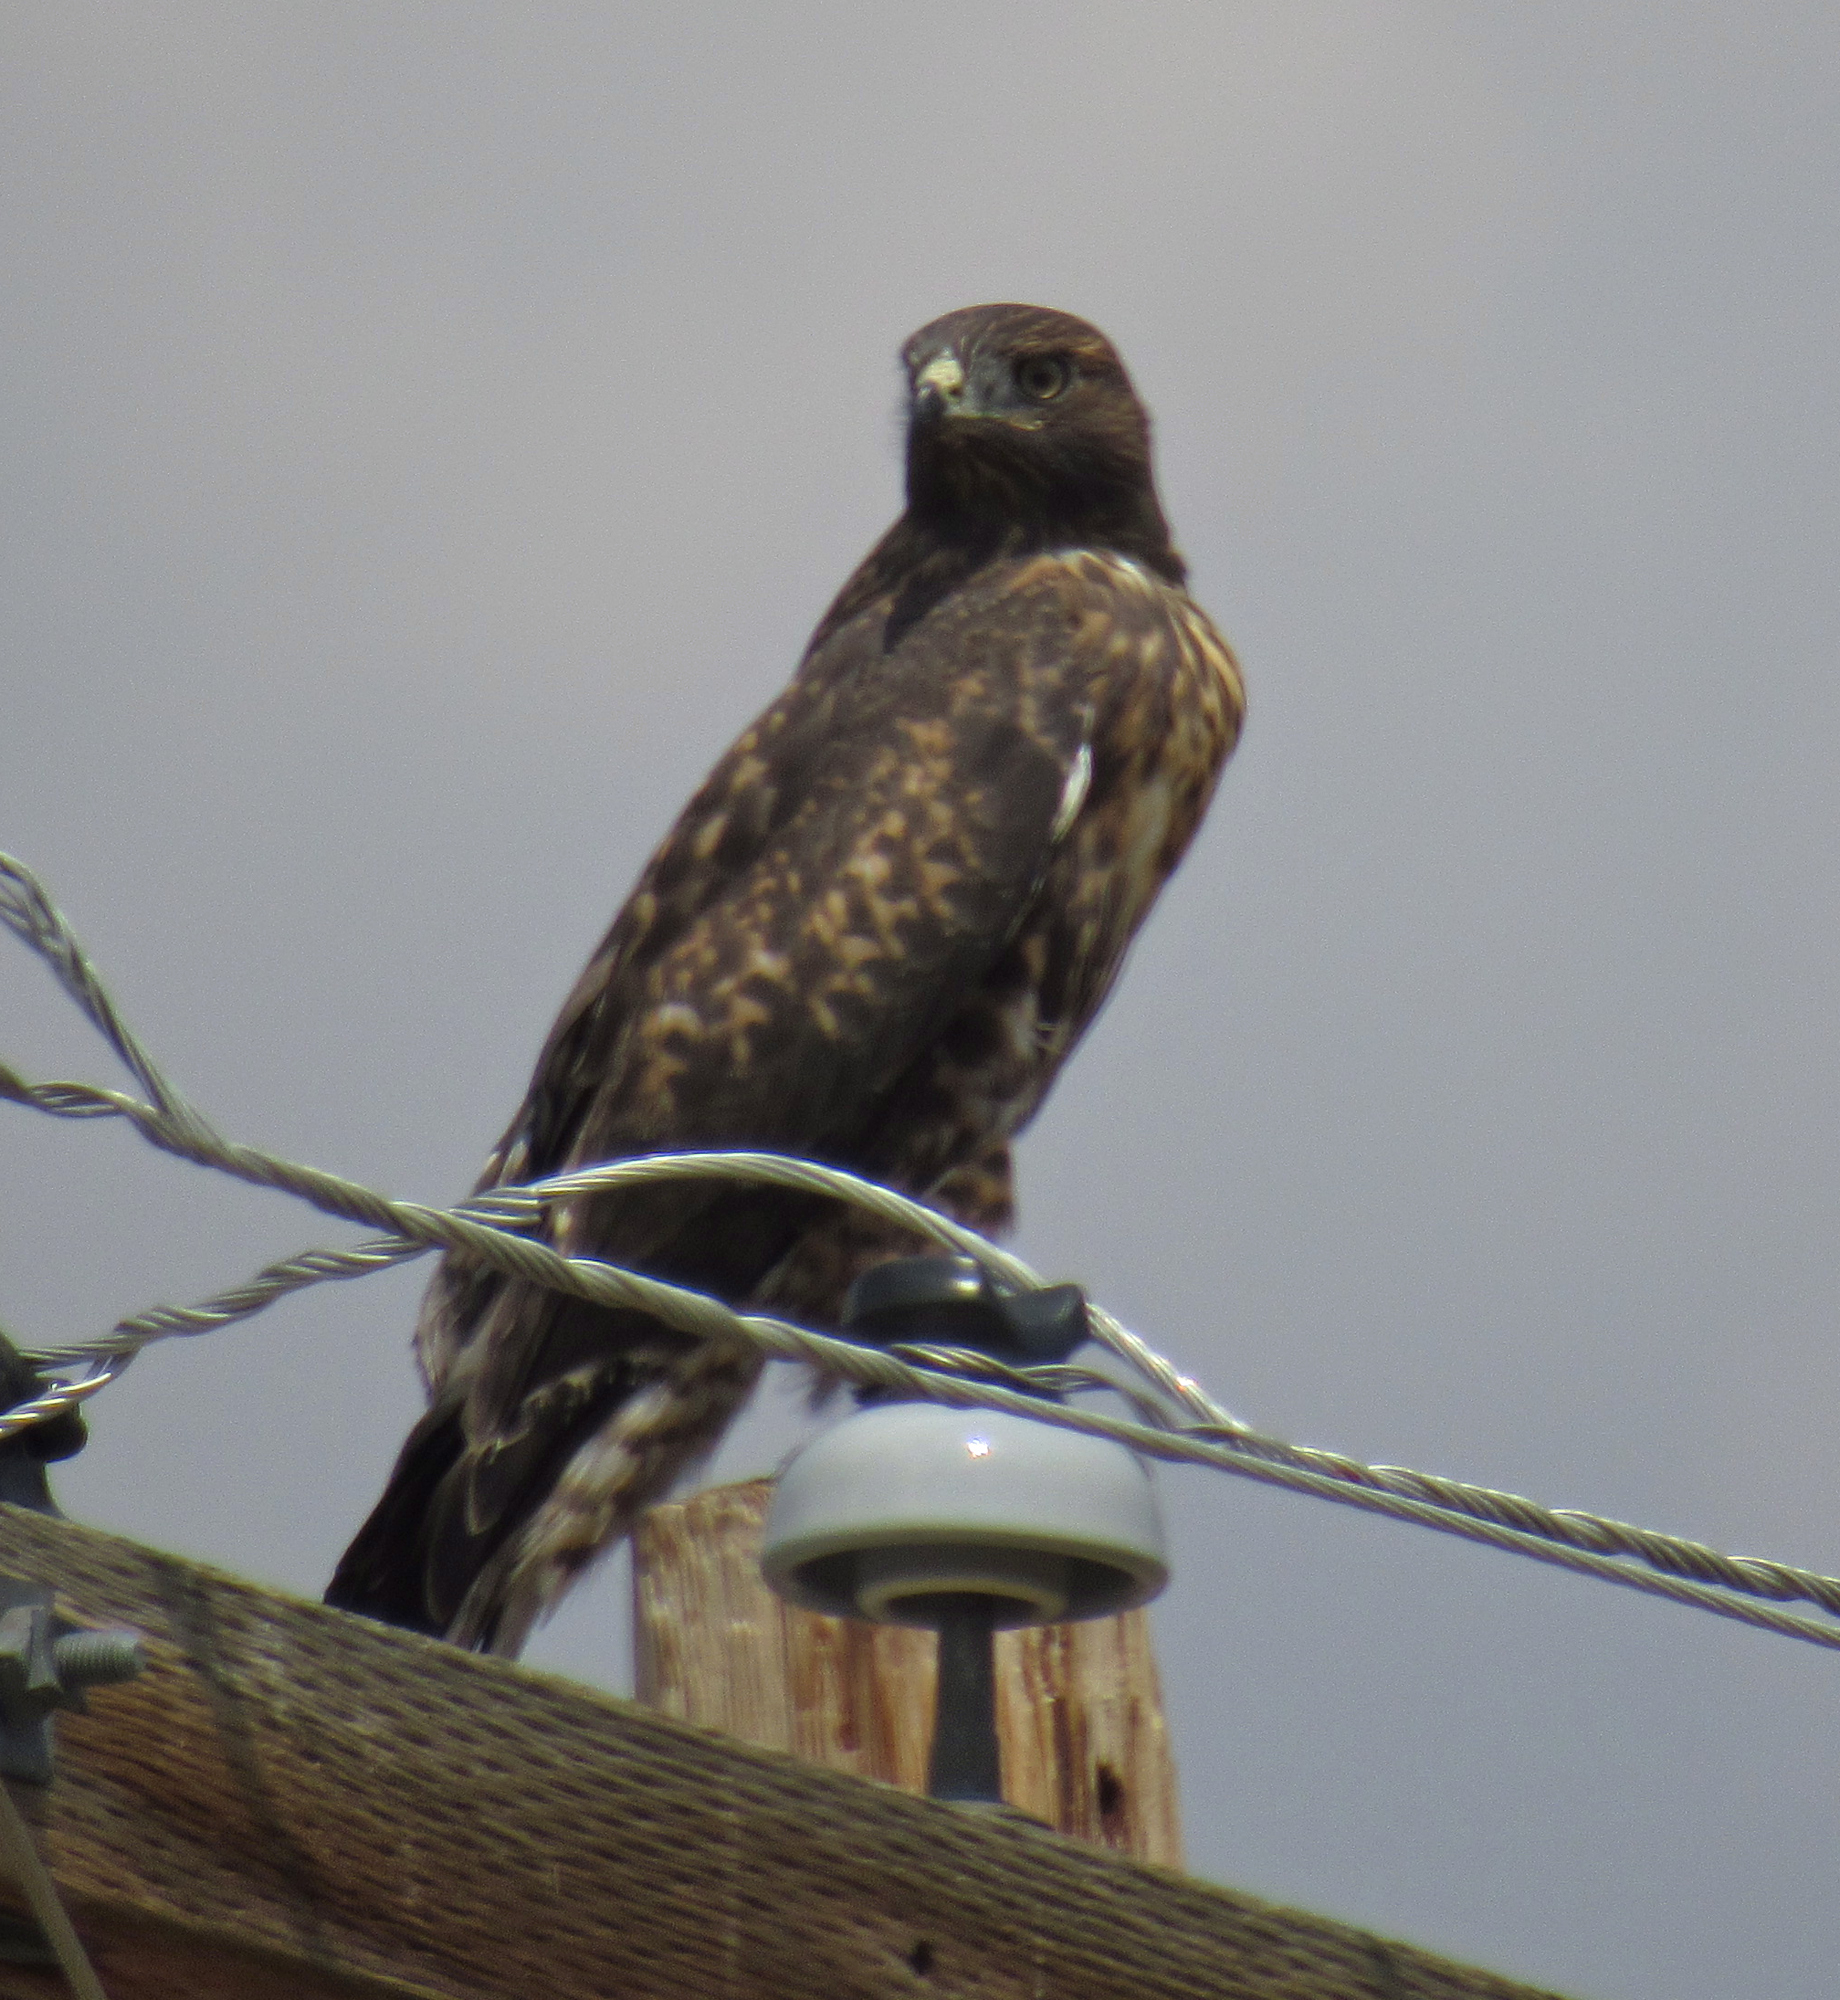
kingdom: Animalia
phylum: Chordata
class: Aves
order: Accipitriformes
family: Accipitridae
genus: Buteo
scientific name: Buteo jamaicensis
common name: Red-tailed hawk
